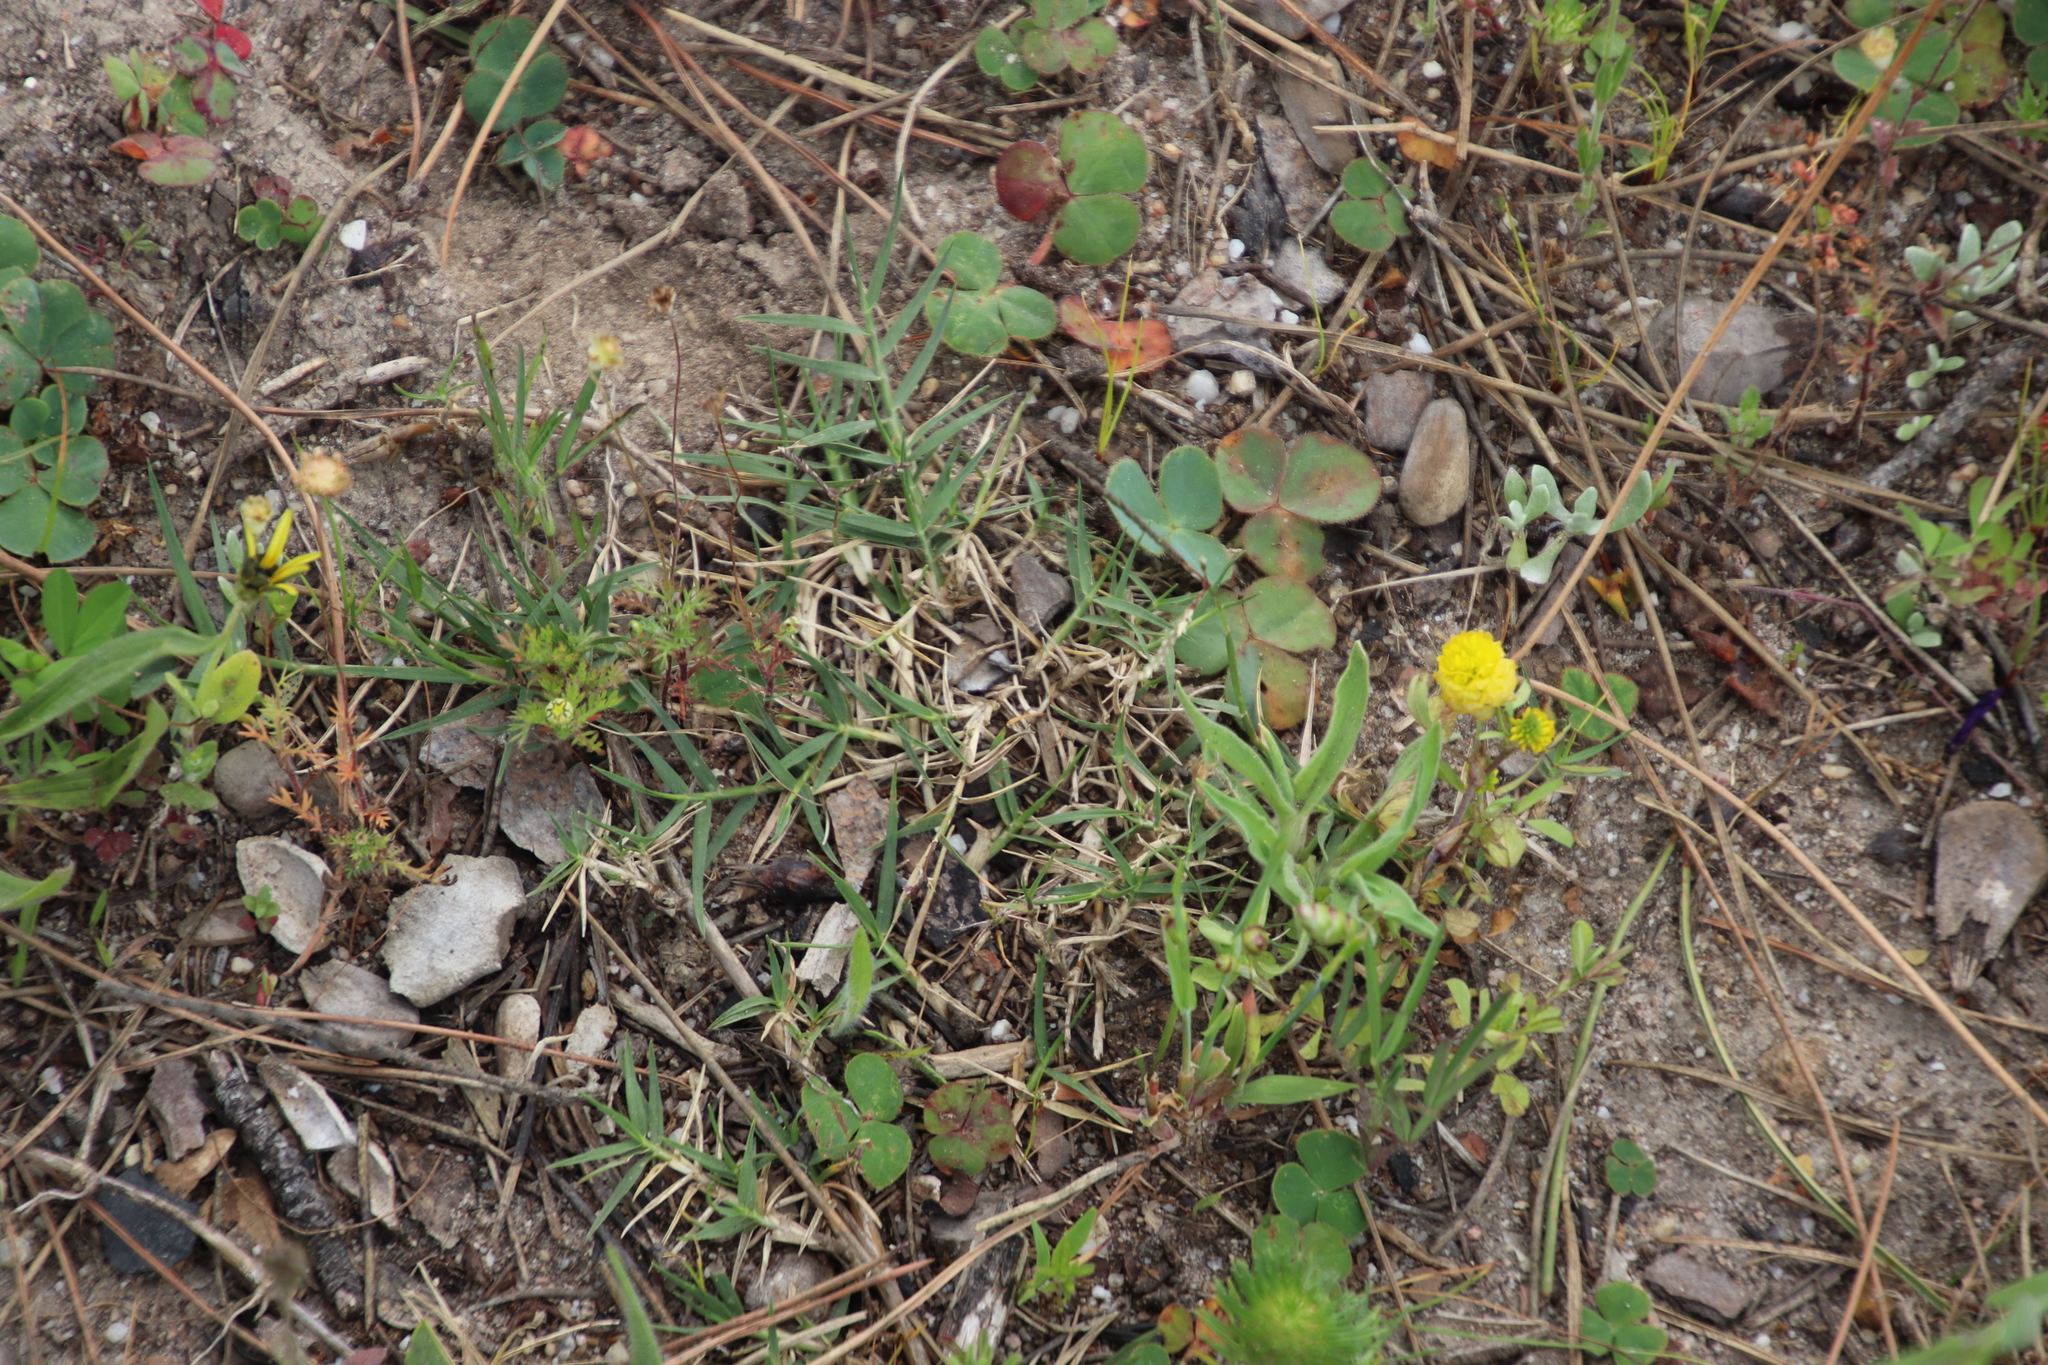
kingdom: Plantae
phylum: Tracheophyta
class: Liliopsida
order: Poales
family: Poaceae
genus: Cynodon
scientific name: Cynodon dactylon
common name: Bermuda grass
